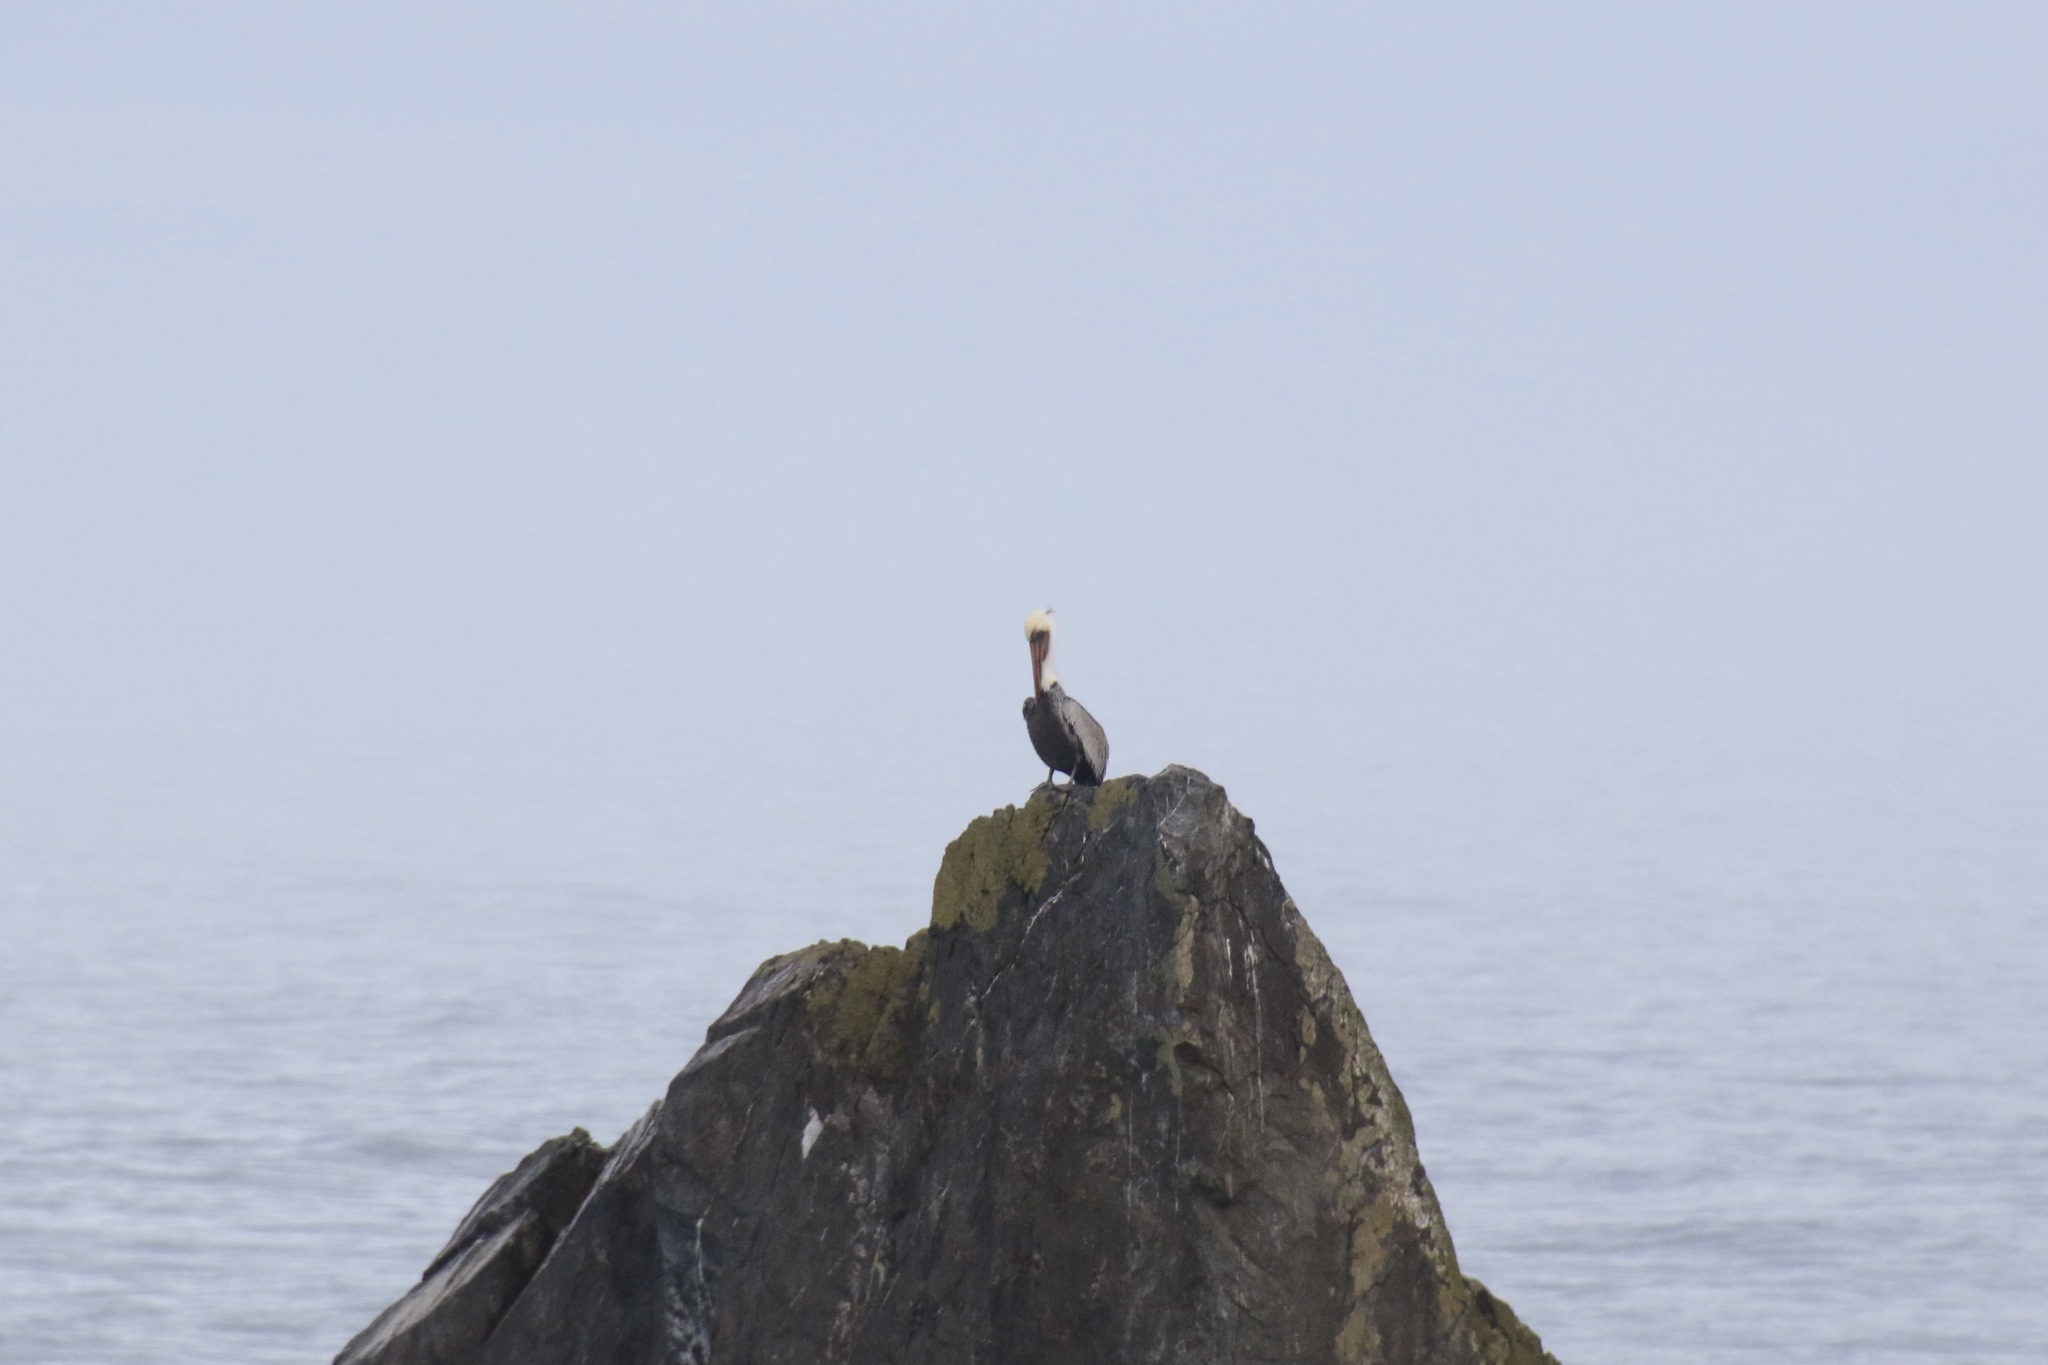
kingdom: Animalia
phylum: Chordata
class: Aves
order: Pelecaniformes
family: Pelecanidae
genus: Pelecanus
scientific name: Pelecanus occidentalis
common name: Brown pelican
